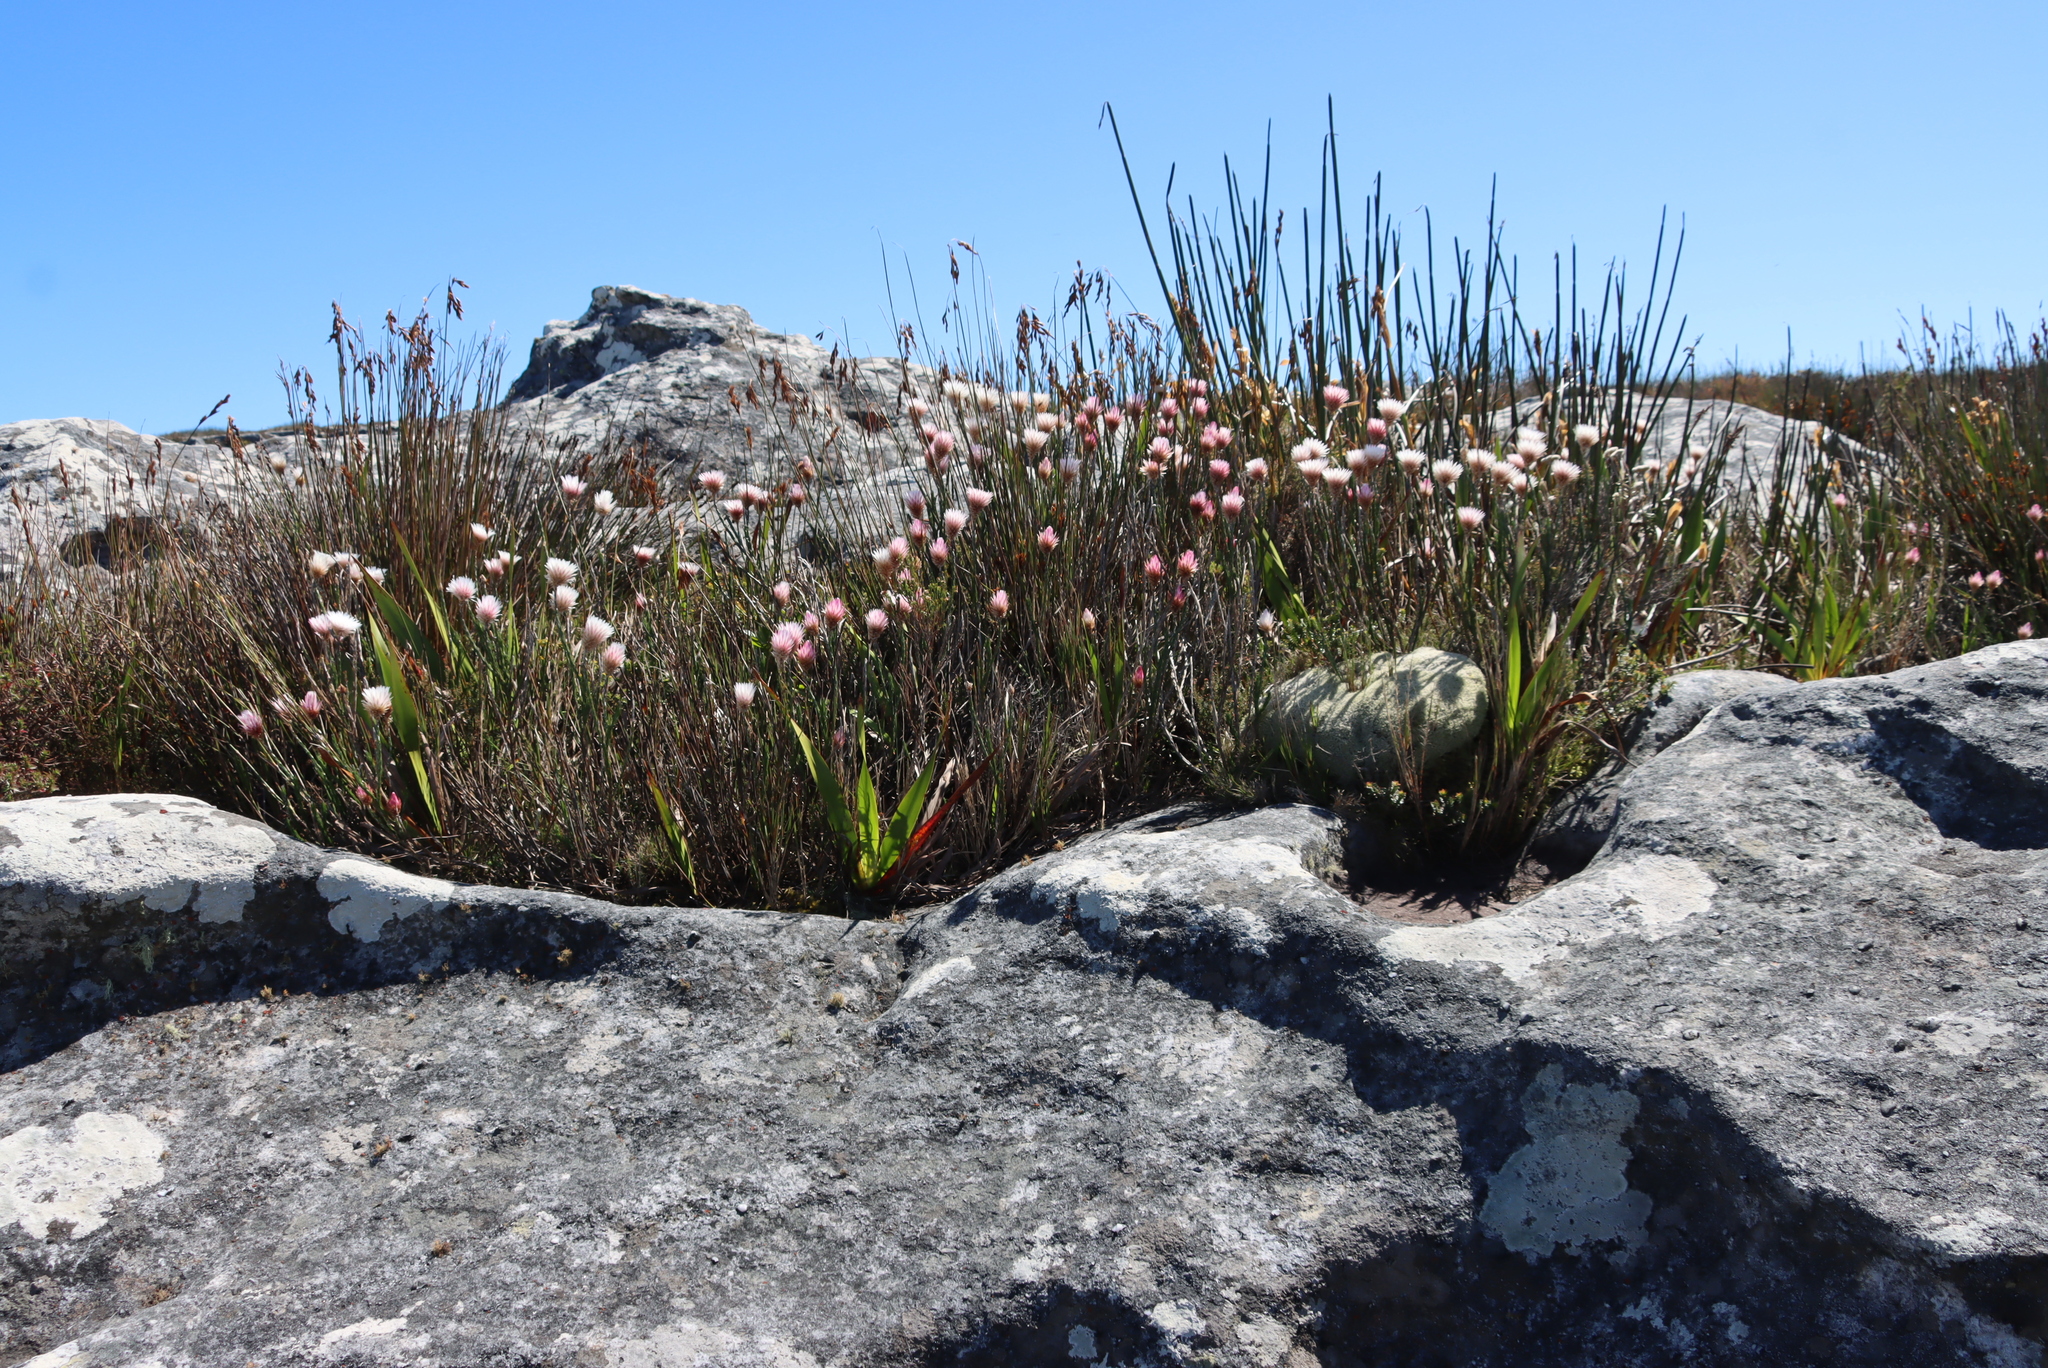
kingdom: Plantae
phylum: Tracheophyta
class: Magnoliopsida
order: Asterales
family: Asteraceae
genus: Edmondia
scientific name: Edmondia pinifolia
